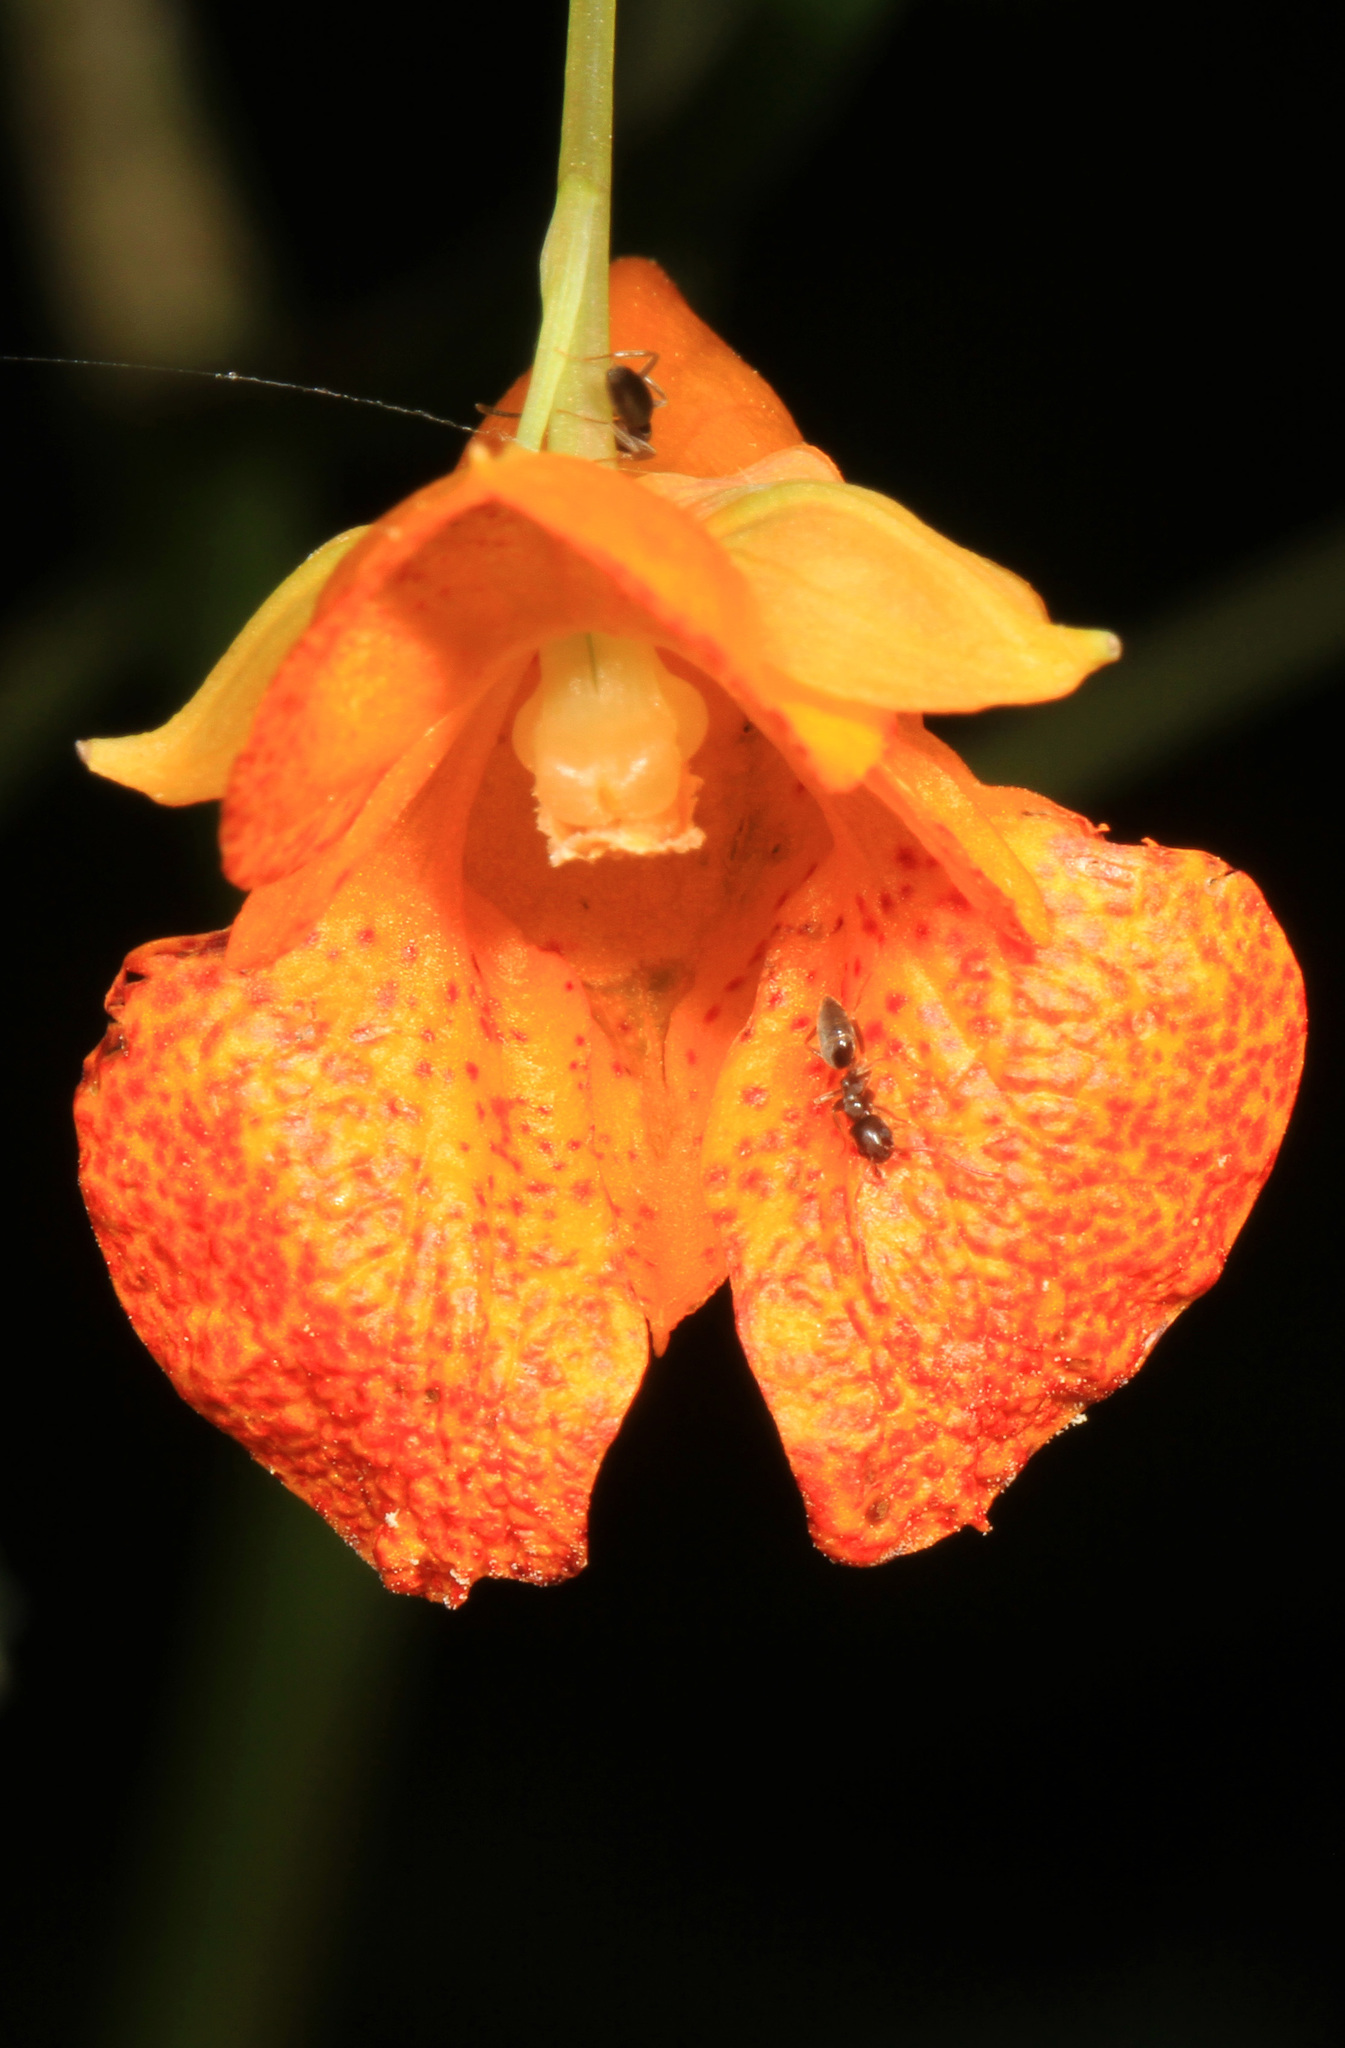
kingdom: Plantae
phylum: Tracheophyta
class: Magnoliopsida
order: Ericales
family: Balsaminaceae
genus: Impatiens
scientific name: Impatiens capensis
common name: Orange balsam
